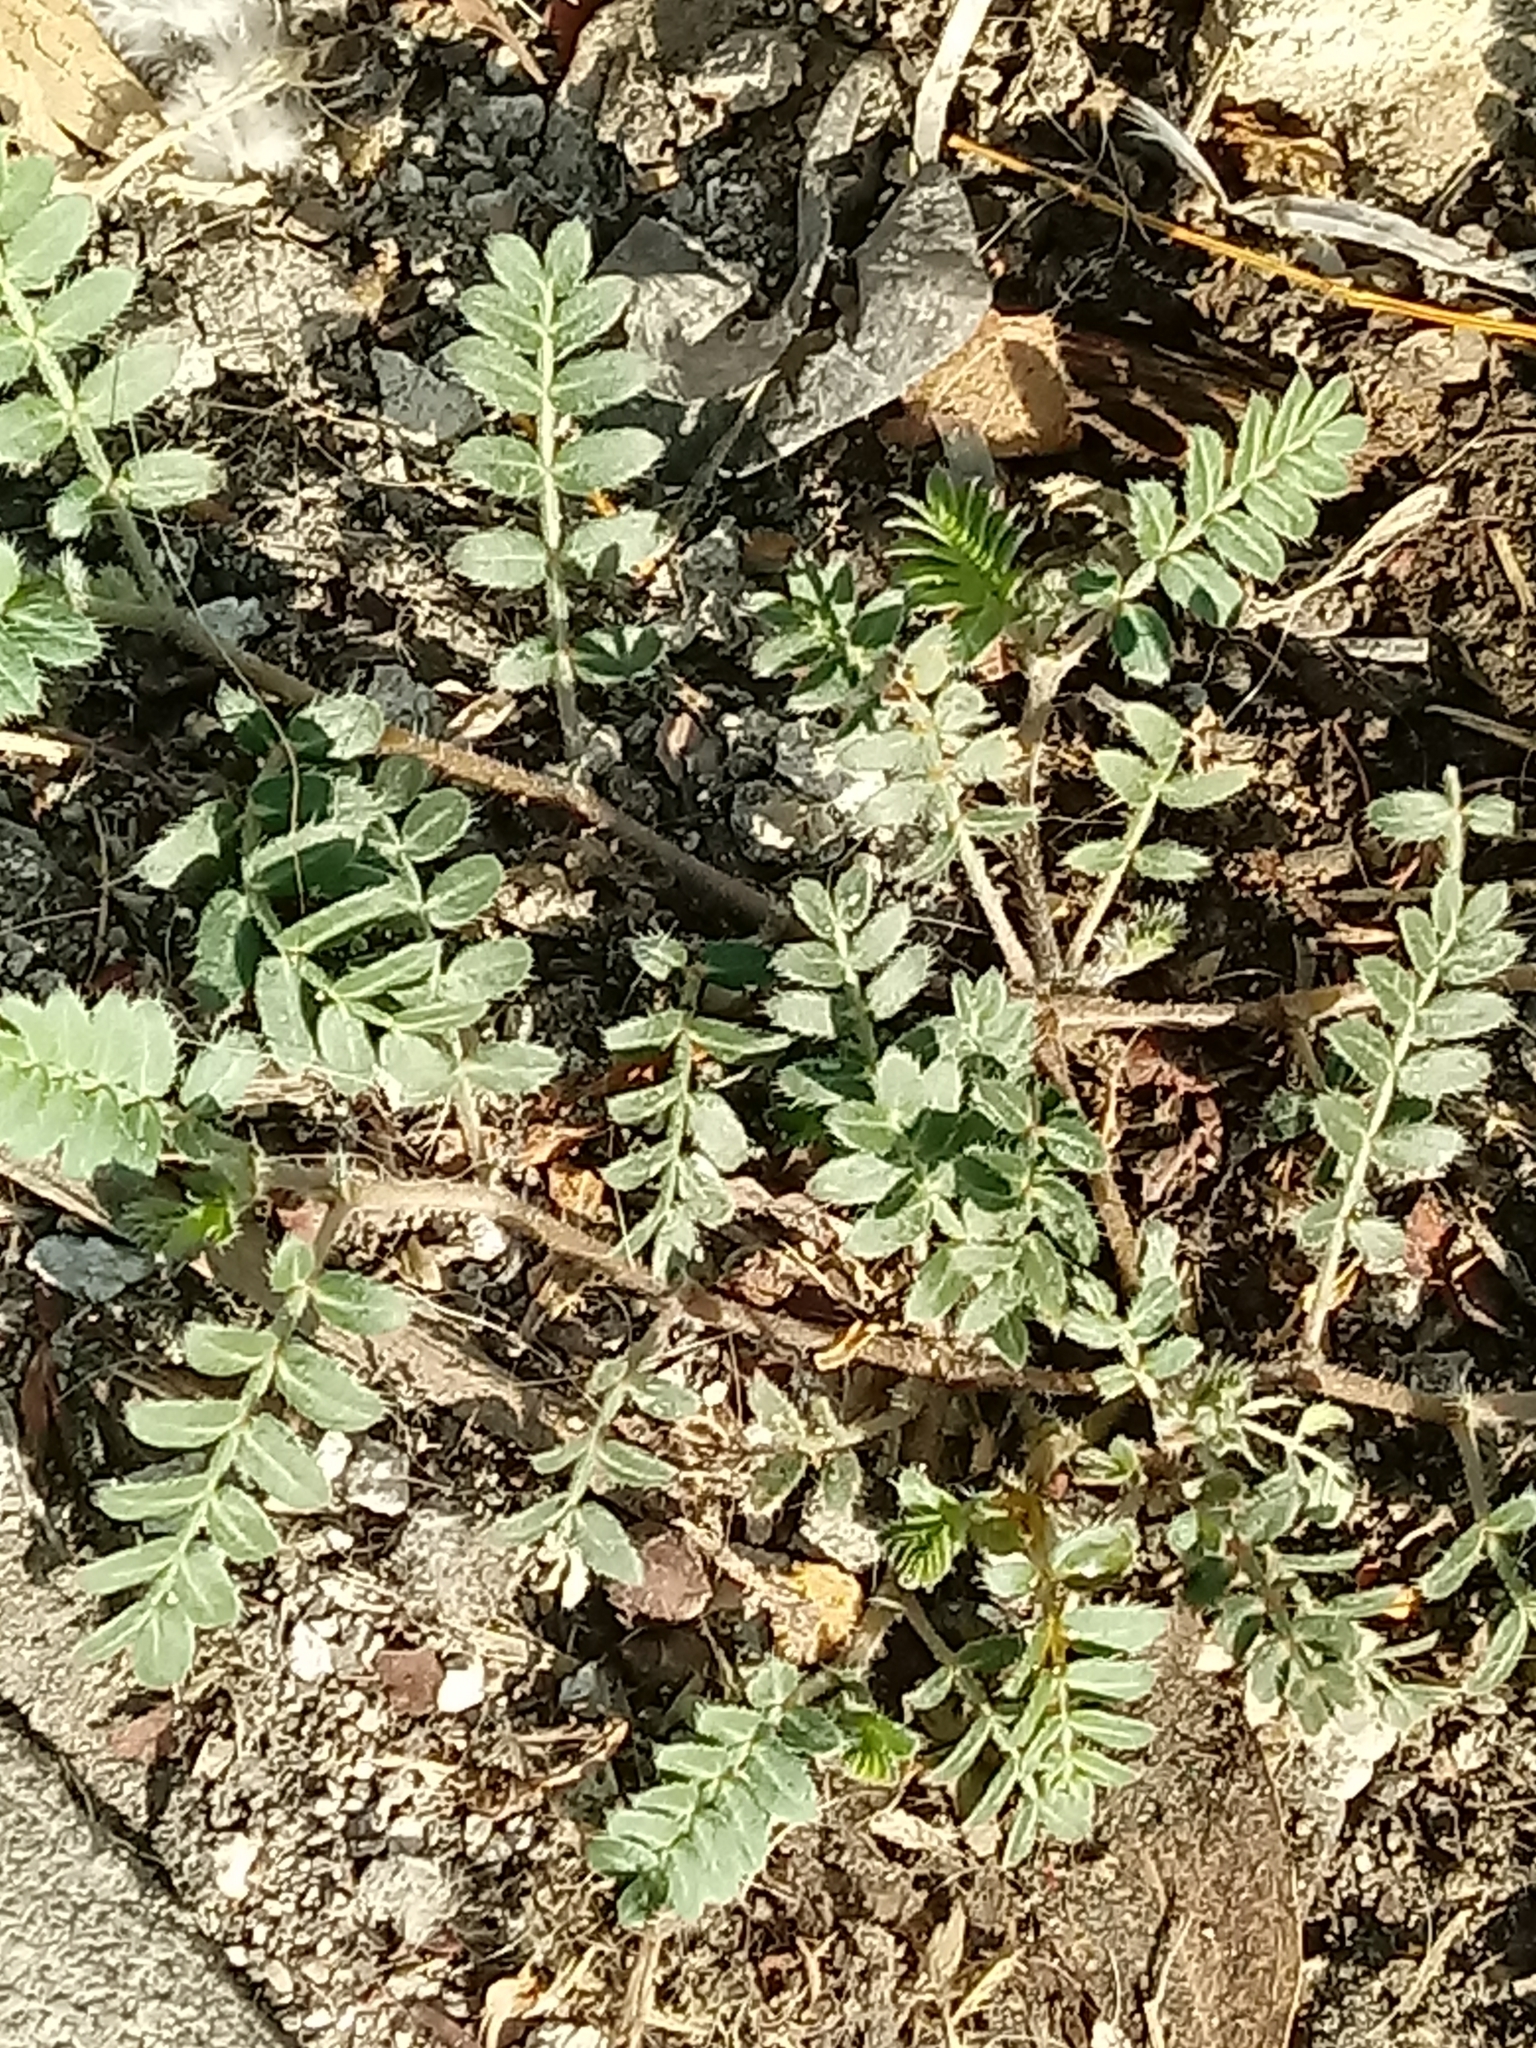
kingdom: Plantae
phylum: Tracheophyta
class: Magnoliopsida
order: Zygophyllales
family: Zygophyllaceae
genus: Tribulus
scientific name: Tribulus terrestris
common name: Puncturevine
